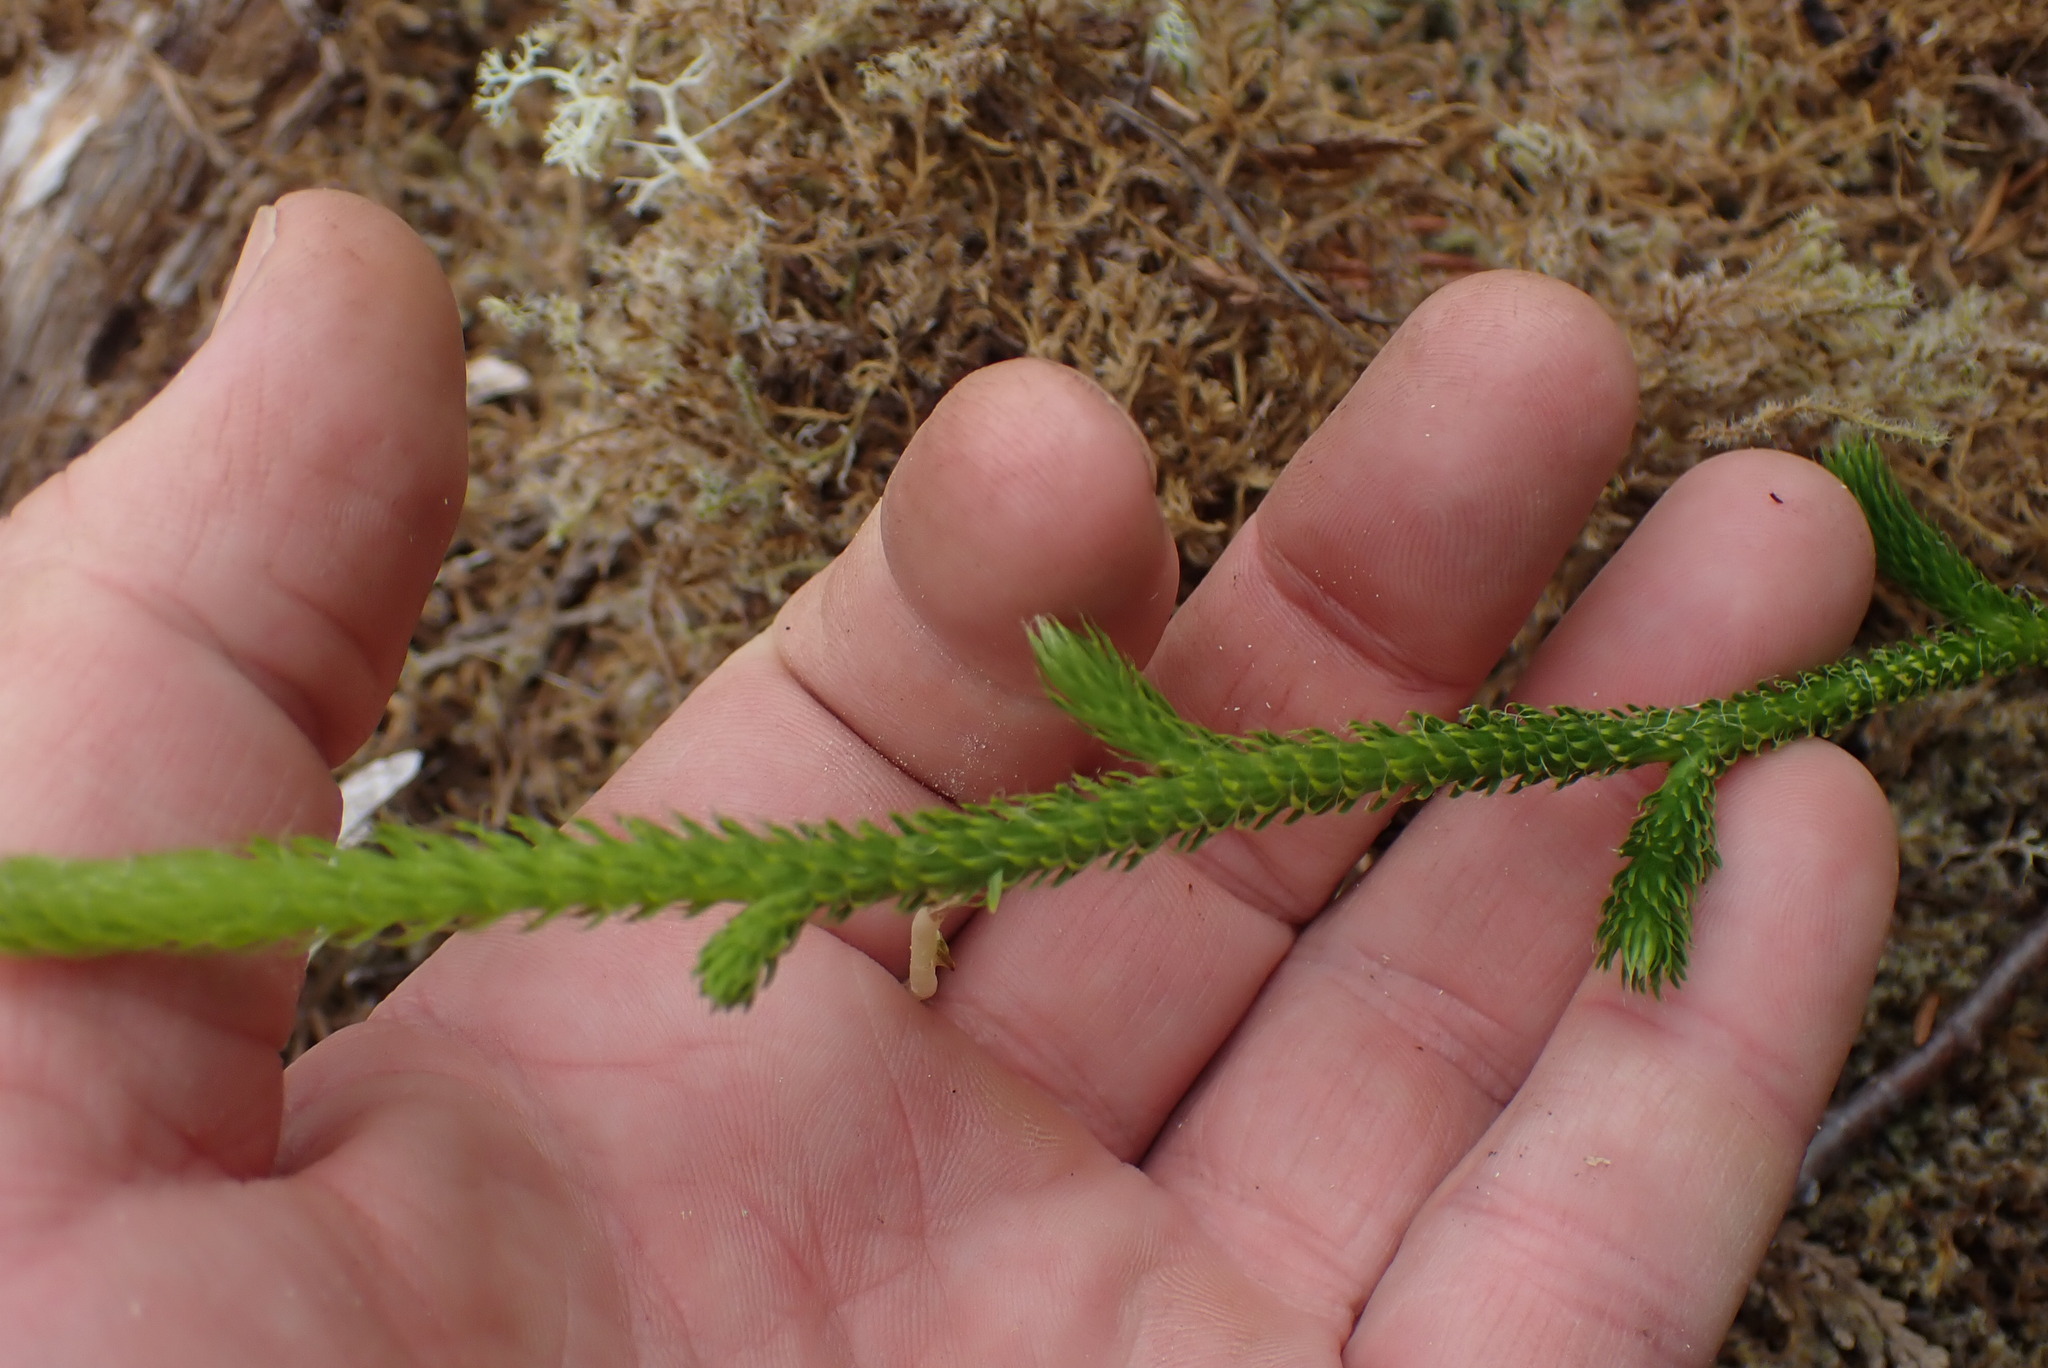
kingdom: Plantae
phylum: Tracheophyta
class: Lycopodiopsida
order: Lycopodiales
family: Lycopodiaceae
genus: Lycopodium
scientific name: Lycopodium clavatum
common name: Stag's-horn clubmoss
